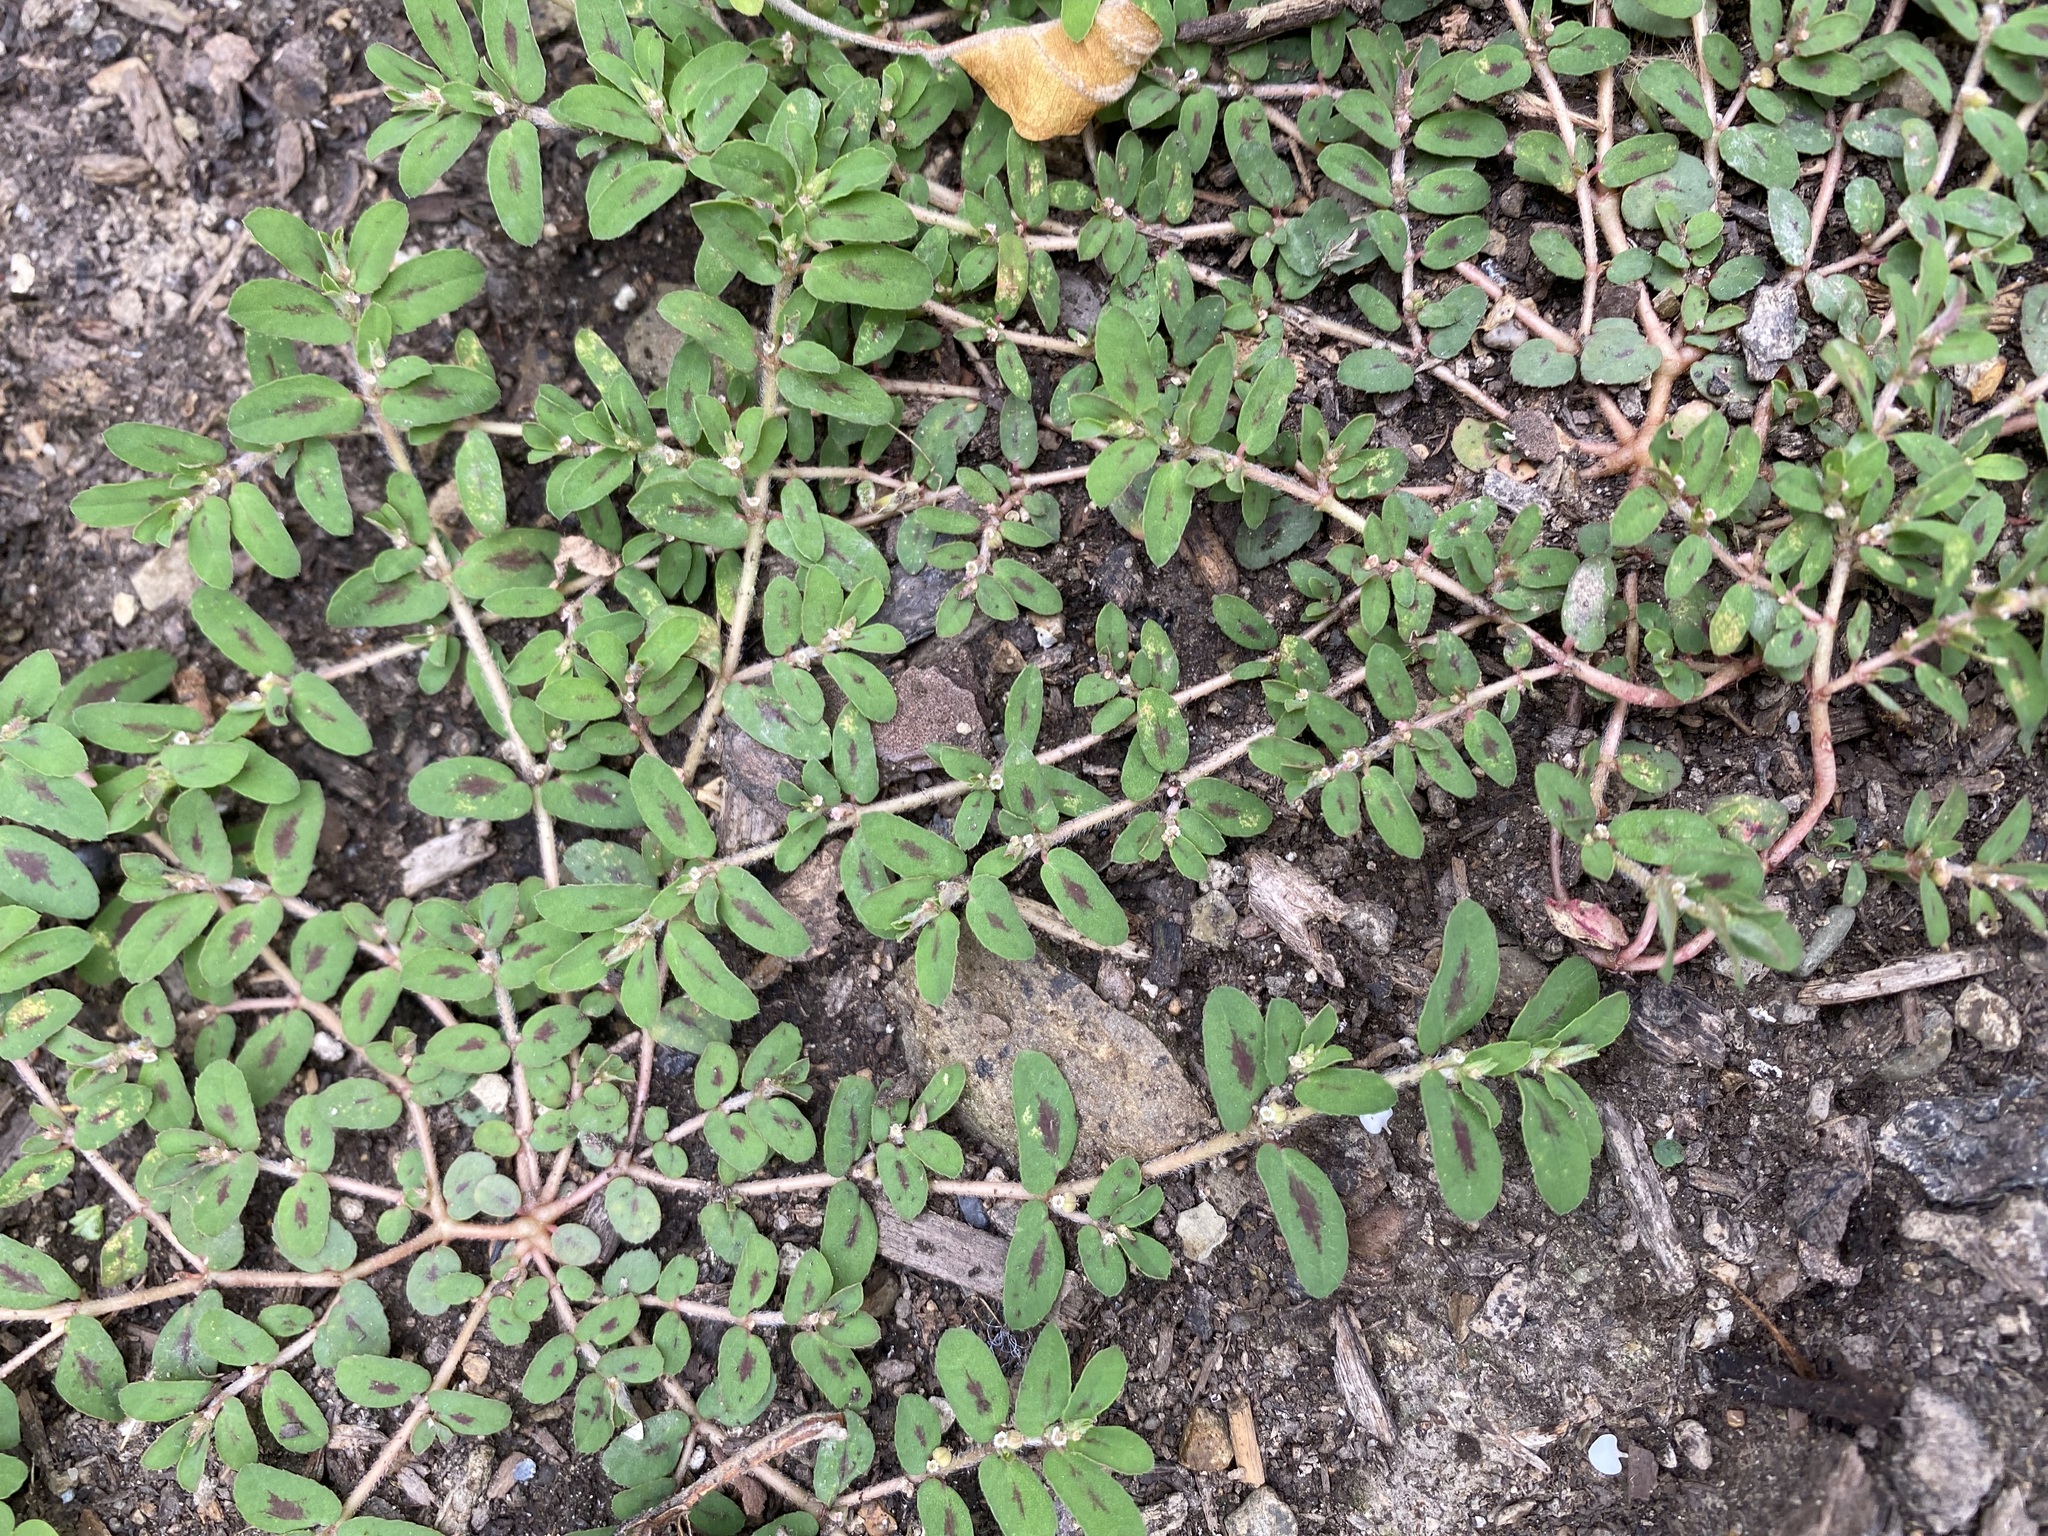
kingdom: Plantae
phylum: Tracheophyta
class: Magnoliopsida
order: Malpighiales
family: Euphorbiaceae
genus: Euphorbia
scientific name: Euphorbia maculata
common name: Spotted spurge
